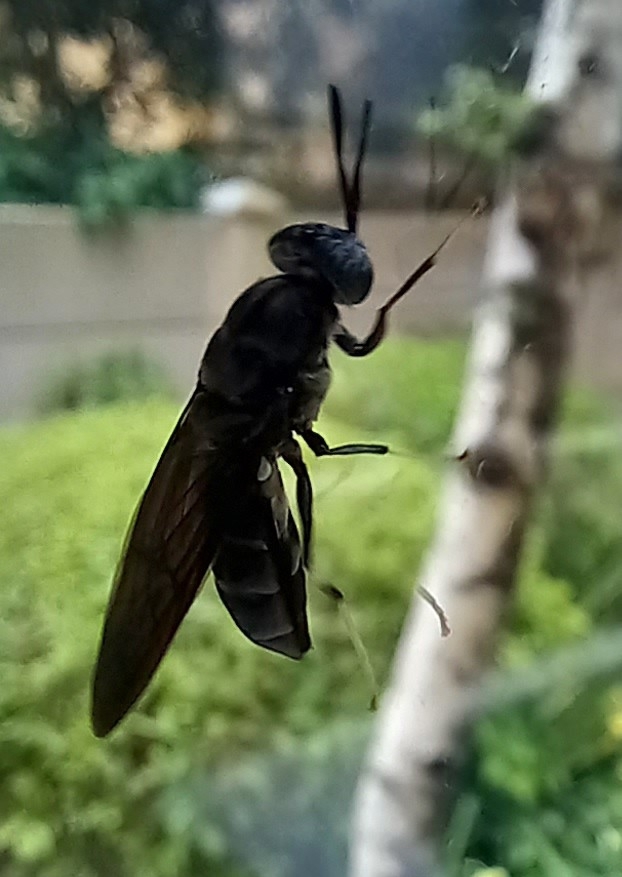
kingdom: Animalia
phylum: Arthropoda
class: Insecta
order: Diptera
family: Stratiomyidae
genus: Hermetia
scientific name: Hermetia illucens
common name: Black soldier fly
